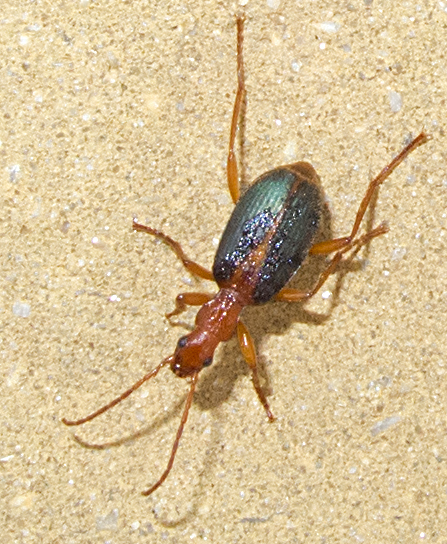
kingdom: Animalia
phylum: Arthropoda
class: Insecta
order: Coleoptera
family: Carabidae
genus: Brachinus
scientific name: Brachinus alexandri
